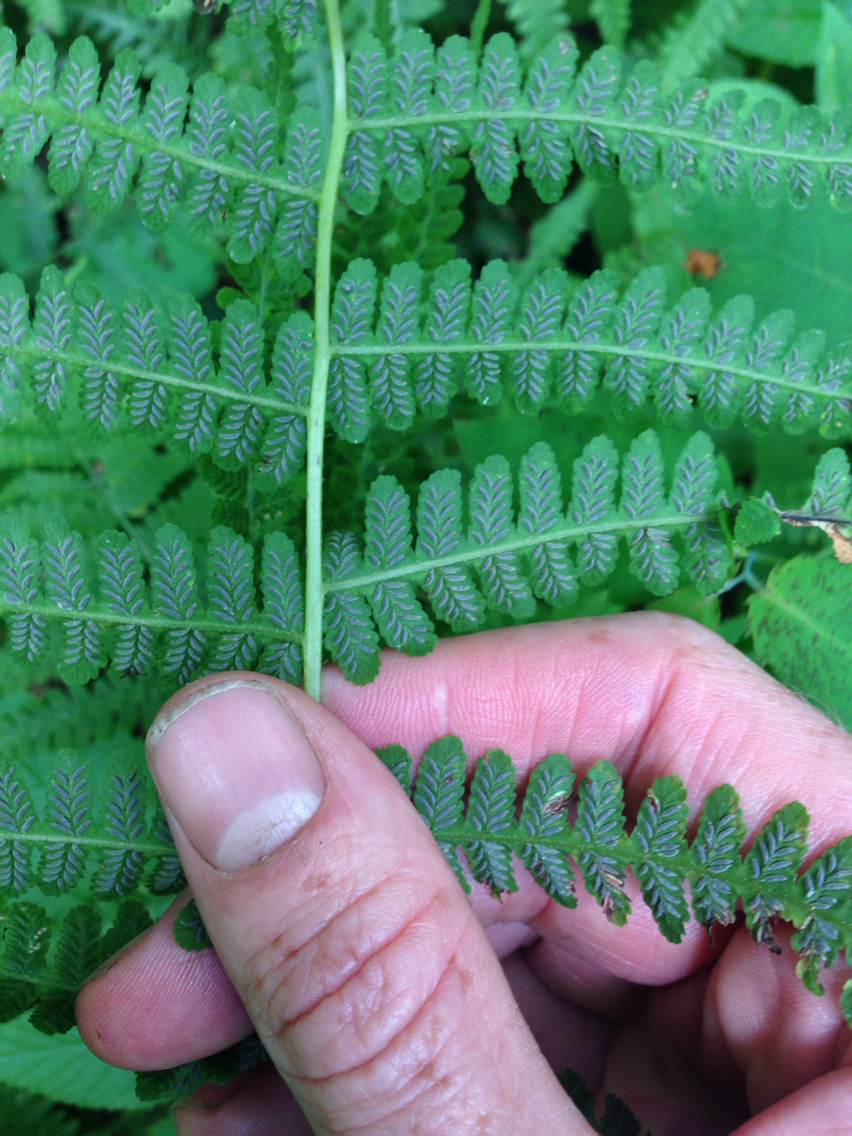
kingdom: Plantae
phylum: Tracheophyta
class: Polypodiopsida
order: Polypodiales
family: Athyriaceae
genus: Deparia
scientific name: Deparia acrostichoides
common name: Silver false spleenwort
